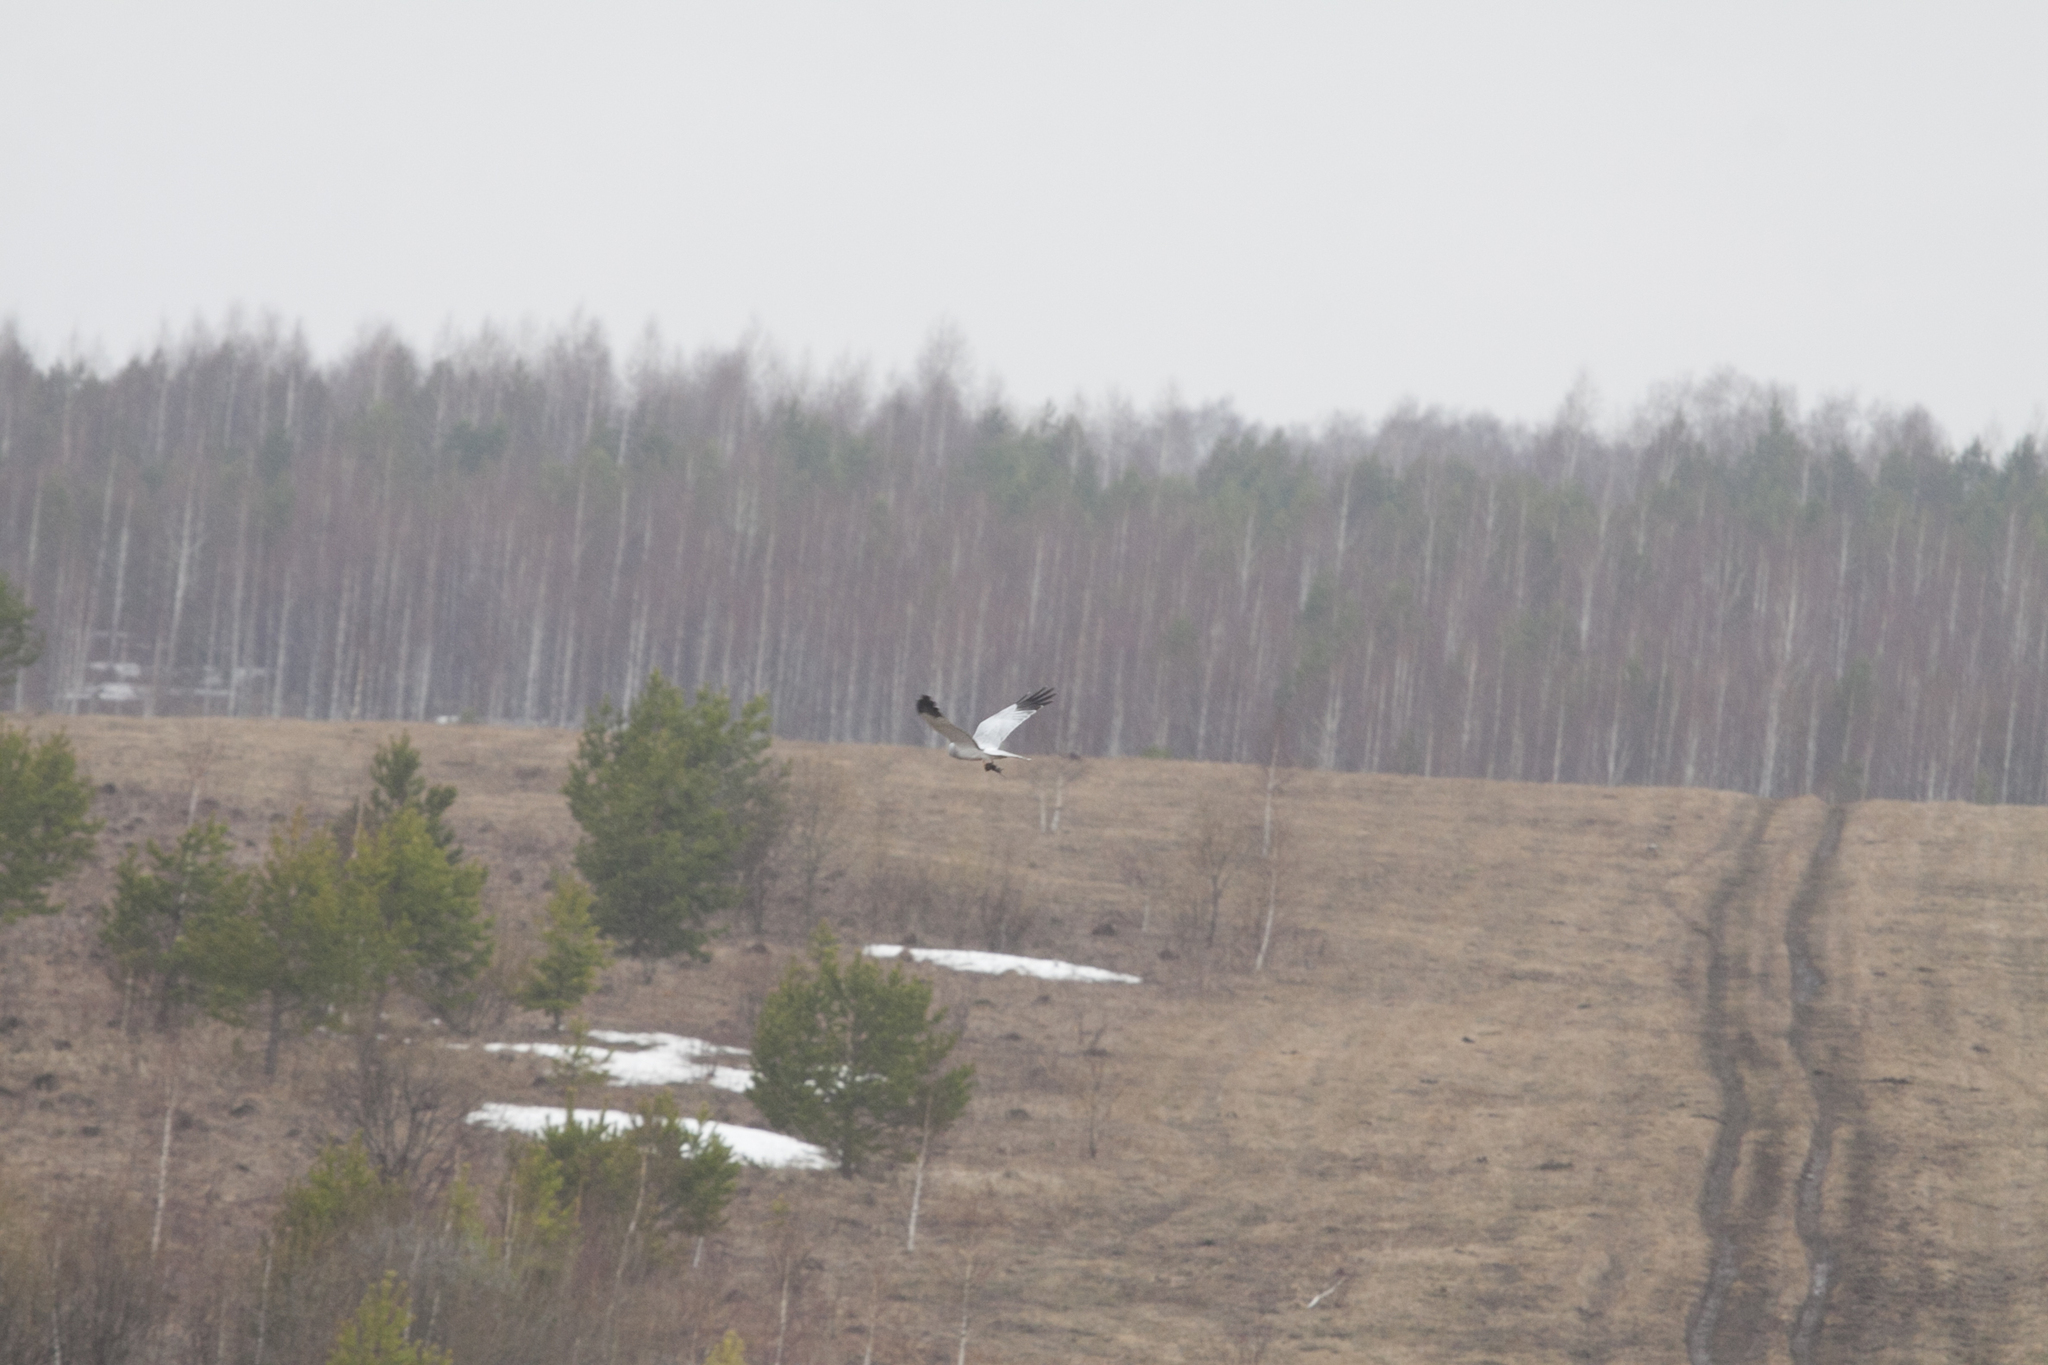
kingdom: Animalia
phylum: Chordata
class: Aves
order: Accipitriformes
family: Accipitridae
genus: Circus
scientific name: Circus cyaneus
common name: Hen harrier
